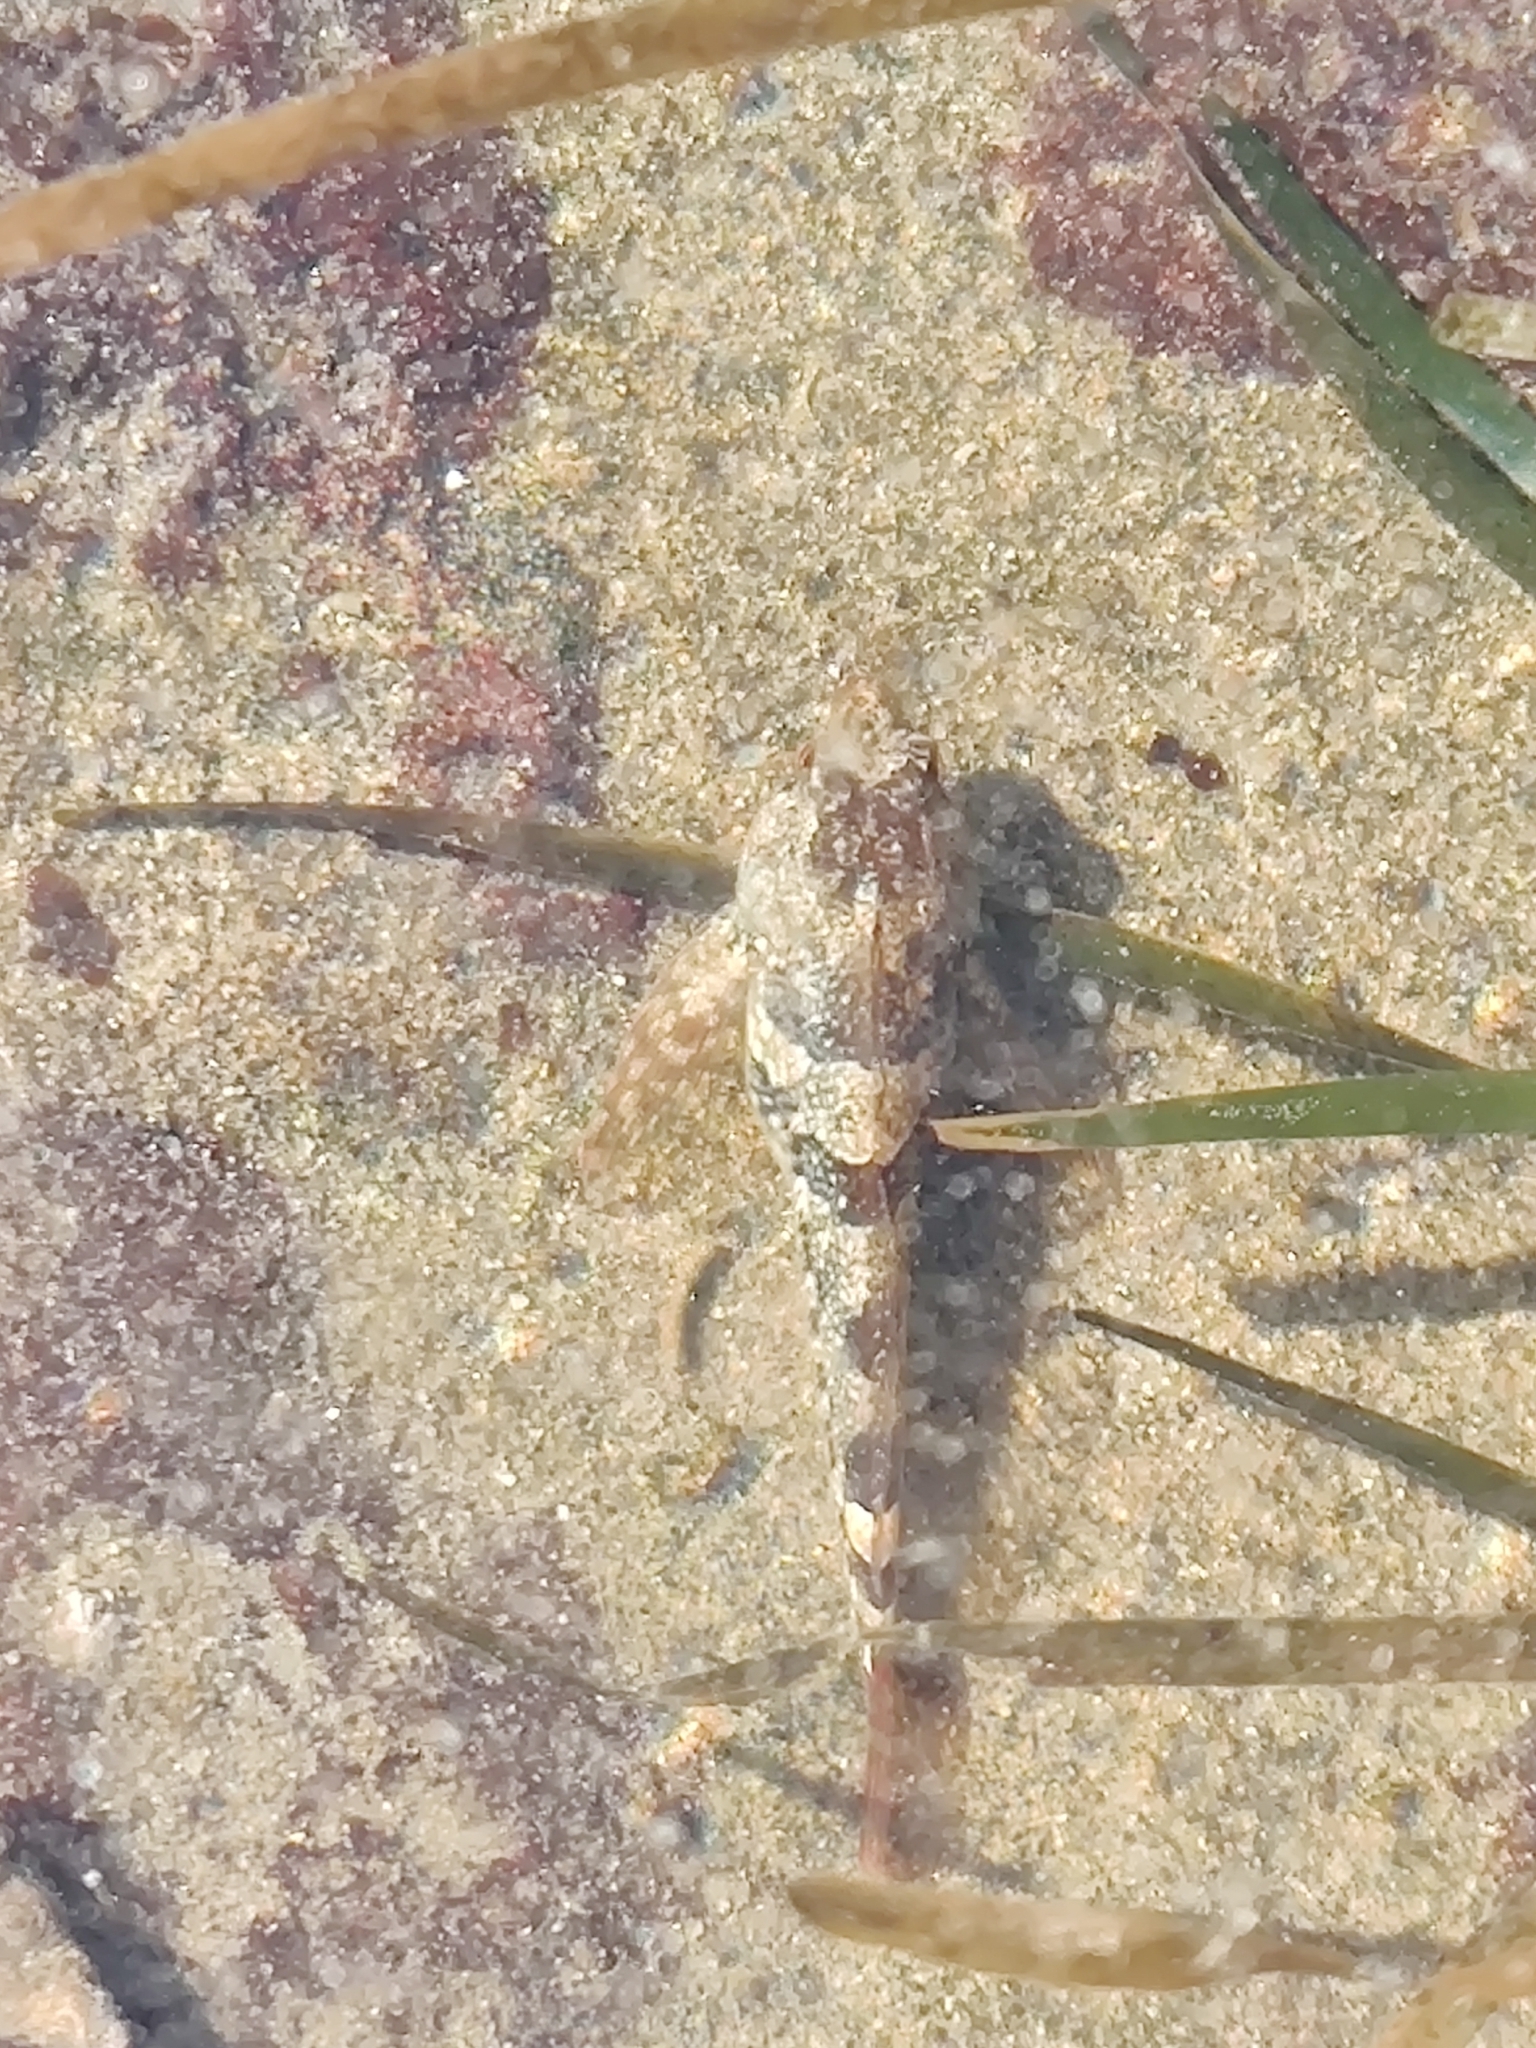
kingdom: Animalia
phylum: Chordata
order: Scorpaeniformes
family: Cottidae
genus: Oligocottus
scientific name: Oligocottus maculosus
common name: Tidepool sculpin
